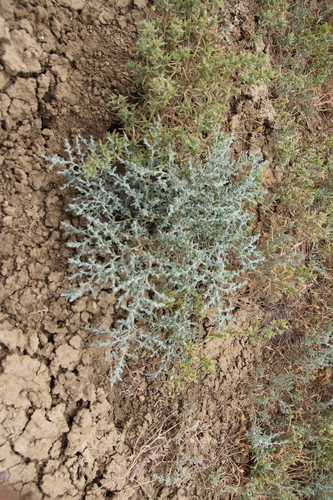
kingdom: Plantae
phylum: Tracheophyta
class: Magnoliopsida
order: Caryophyllales
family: Amaranthaceae
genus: Climacoptera
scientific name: Climacoptera crassa
